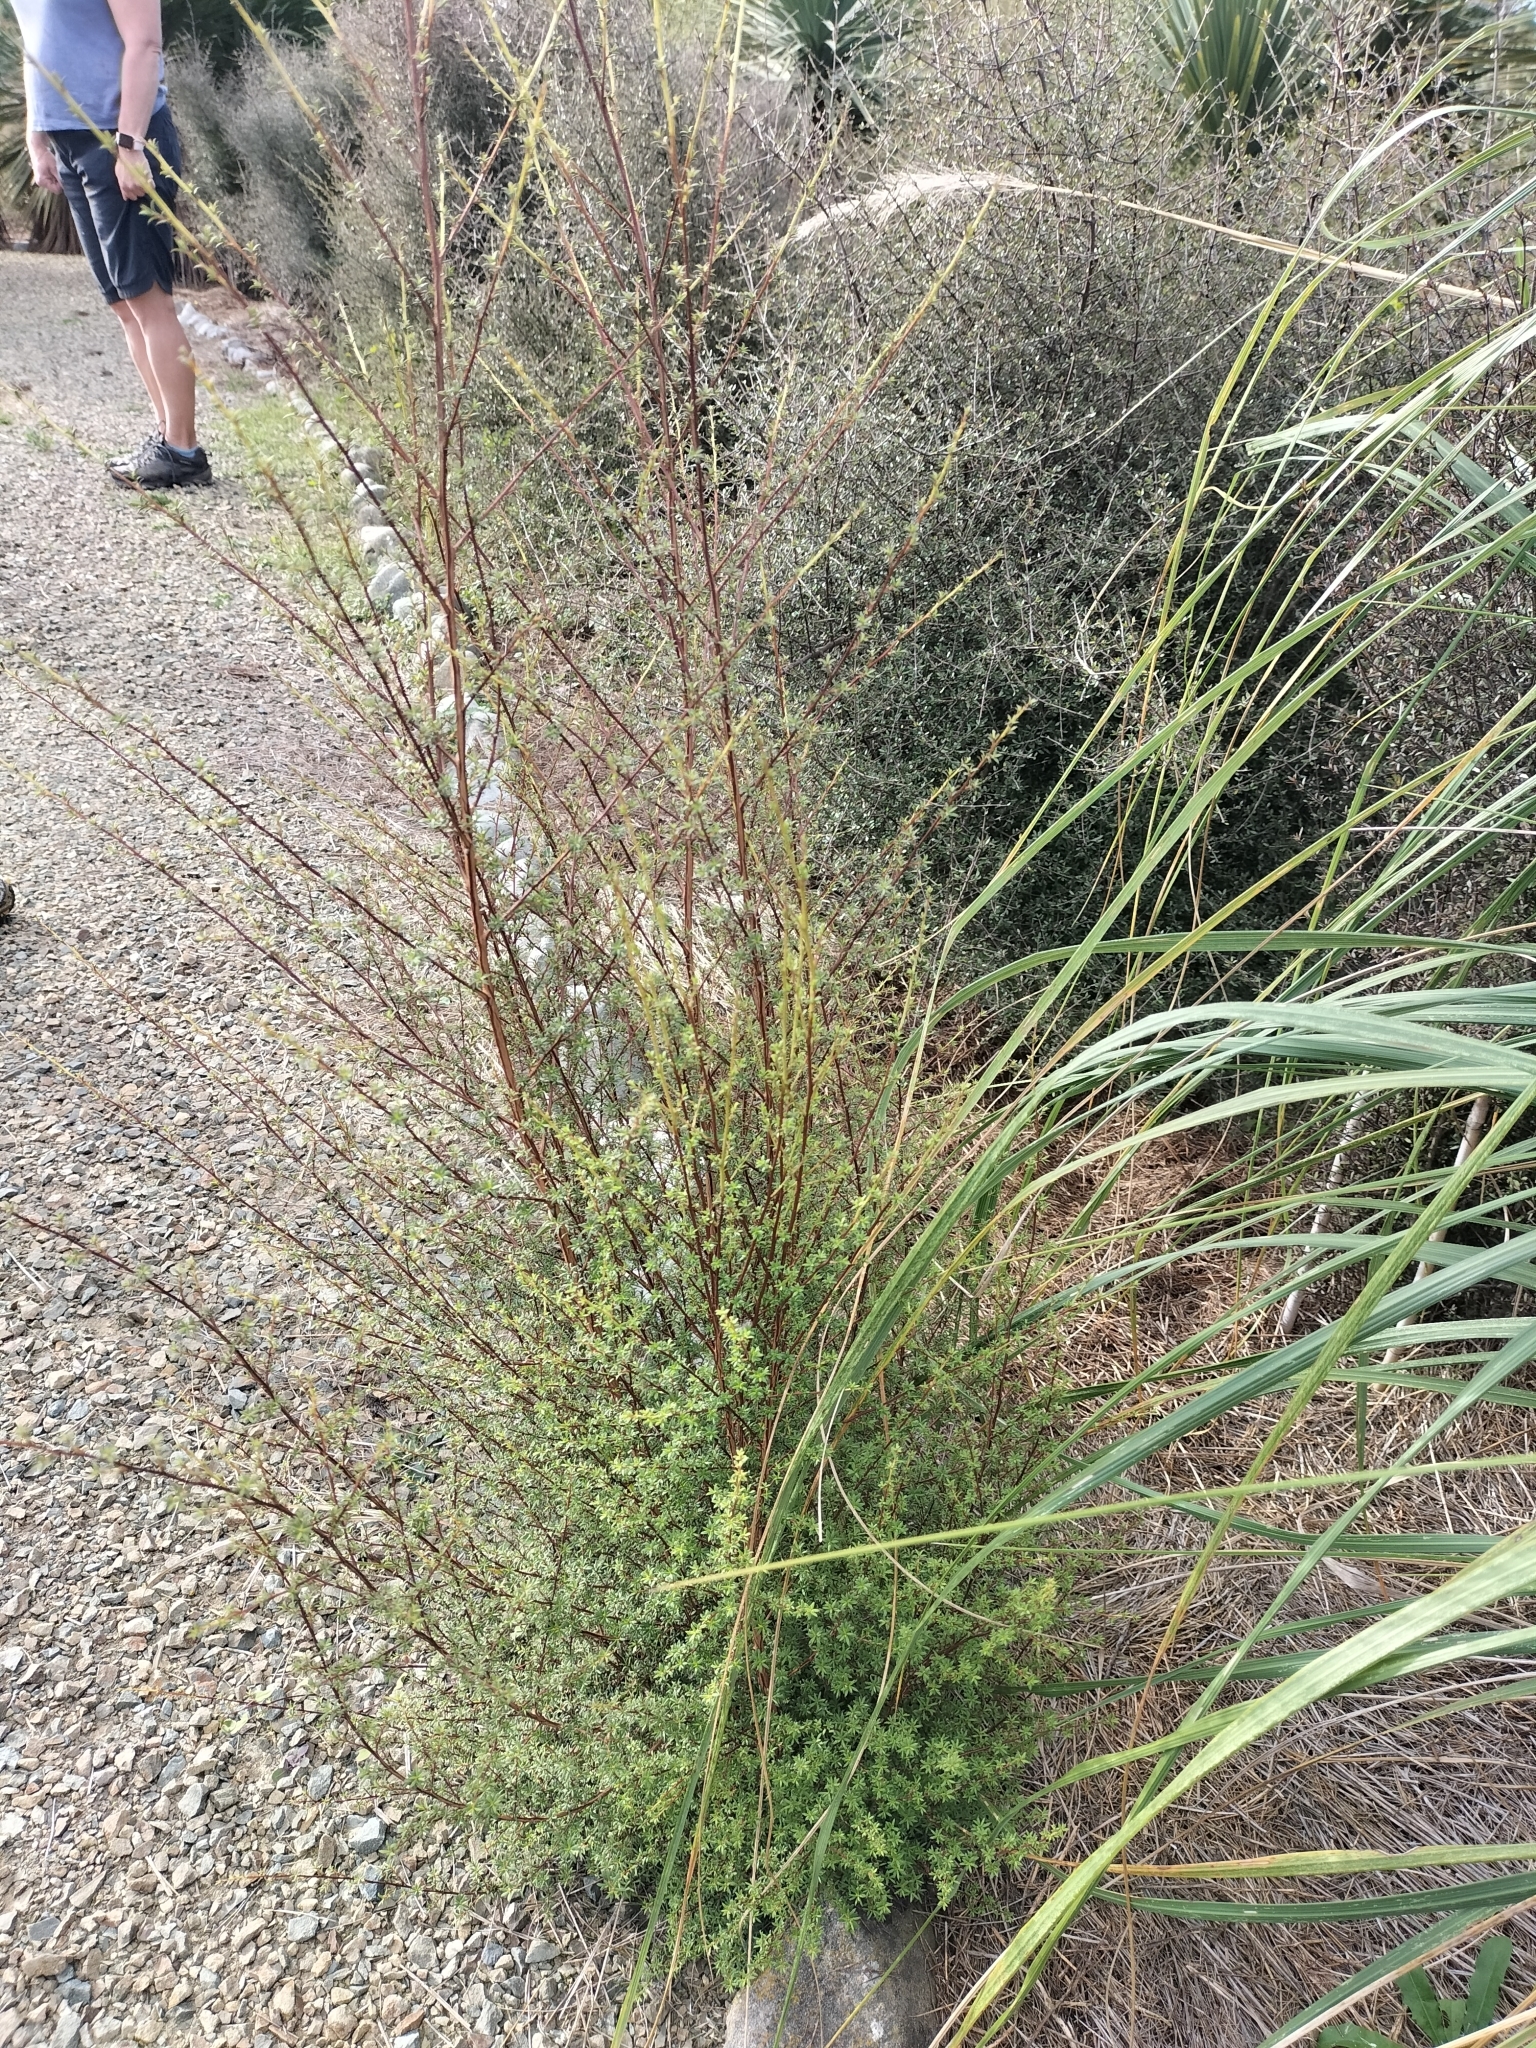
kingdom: Plantae
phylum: Tracheophyta
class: Magnoliopsida
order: Myrtales
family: Myrtaceae
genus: Kunzea
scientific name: Kunzea robusta
